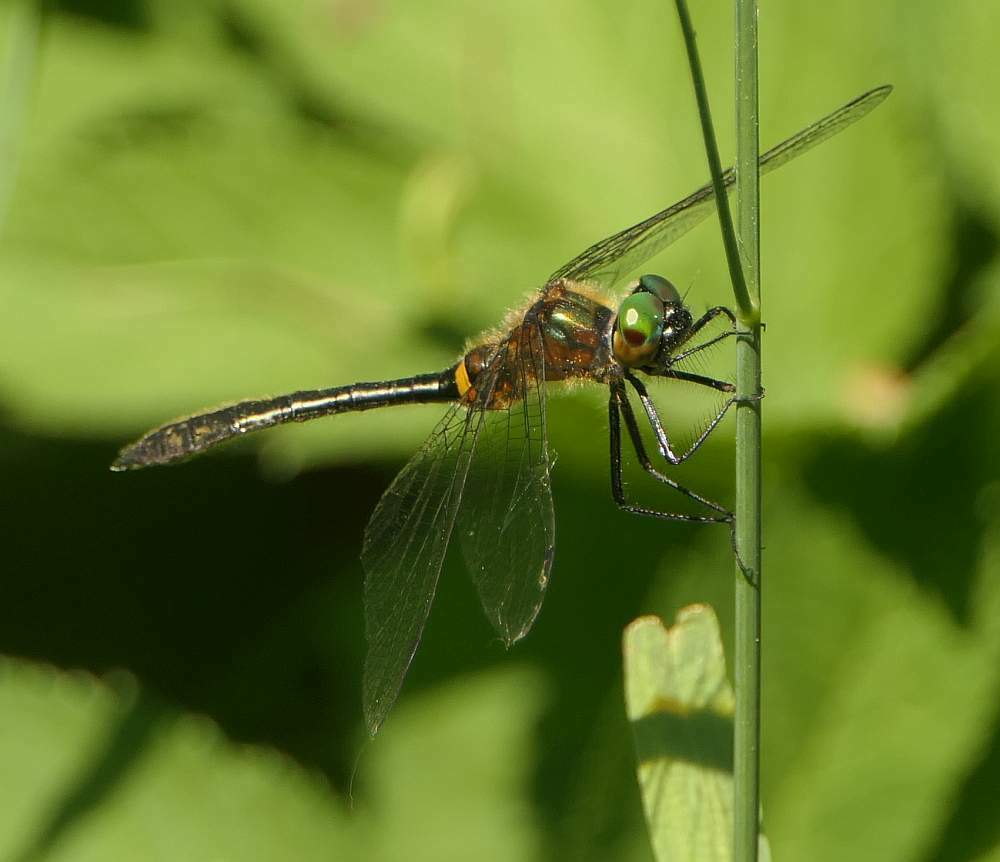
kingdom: Animalia
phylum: Arthropoda
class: Insecta
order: Odonata
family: Corduliidae
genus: Dorocordulia
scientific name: Dorocordulia libera
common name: Racket-tailed emerald
